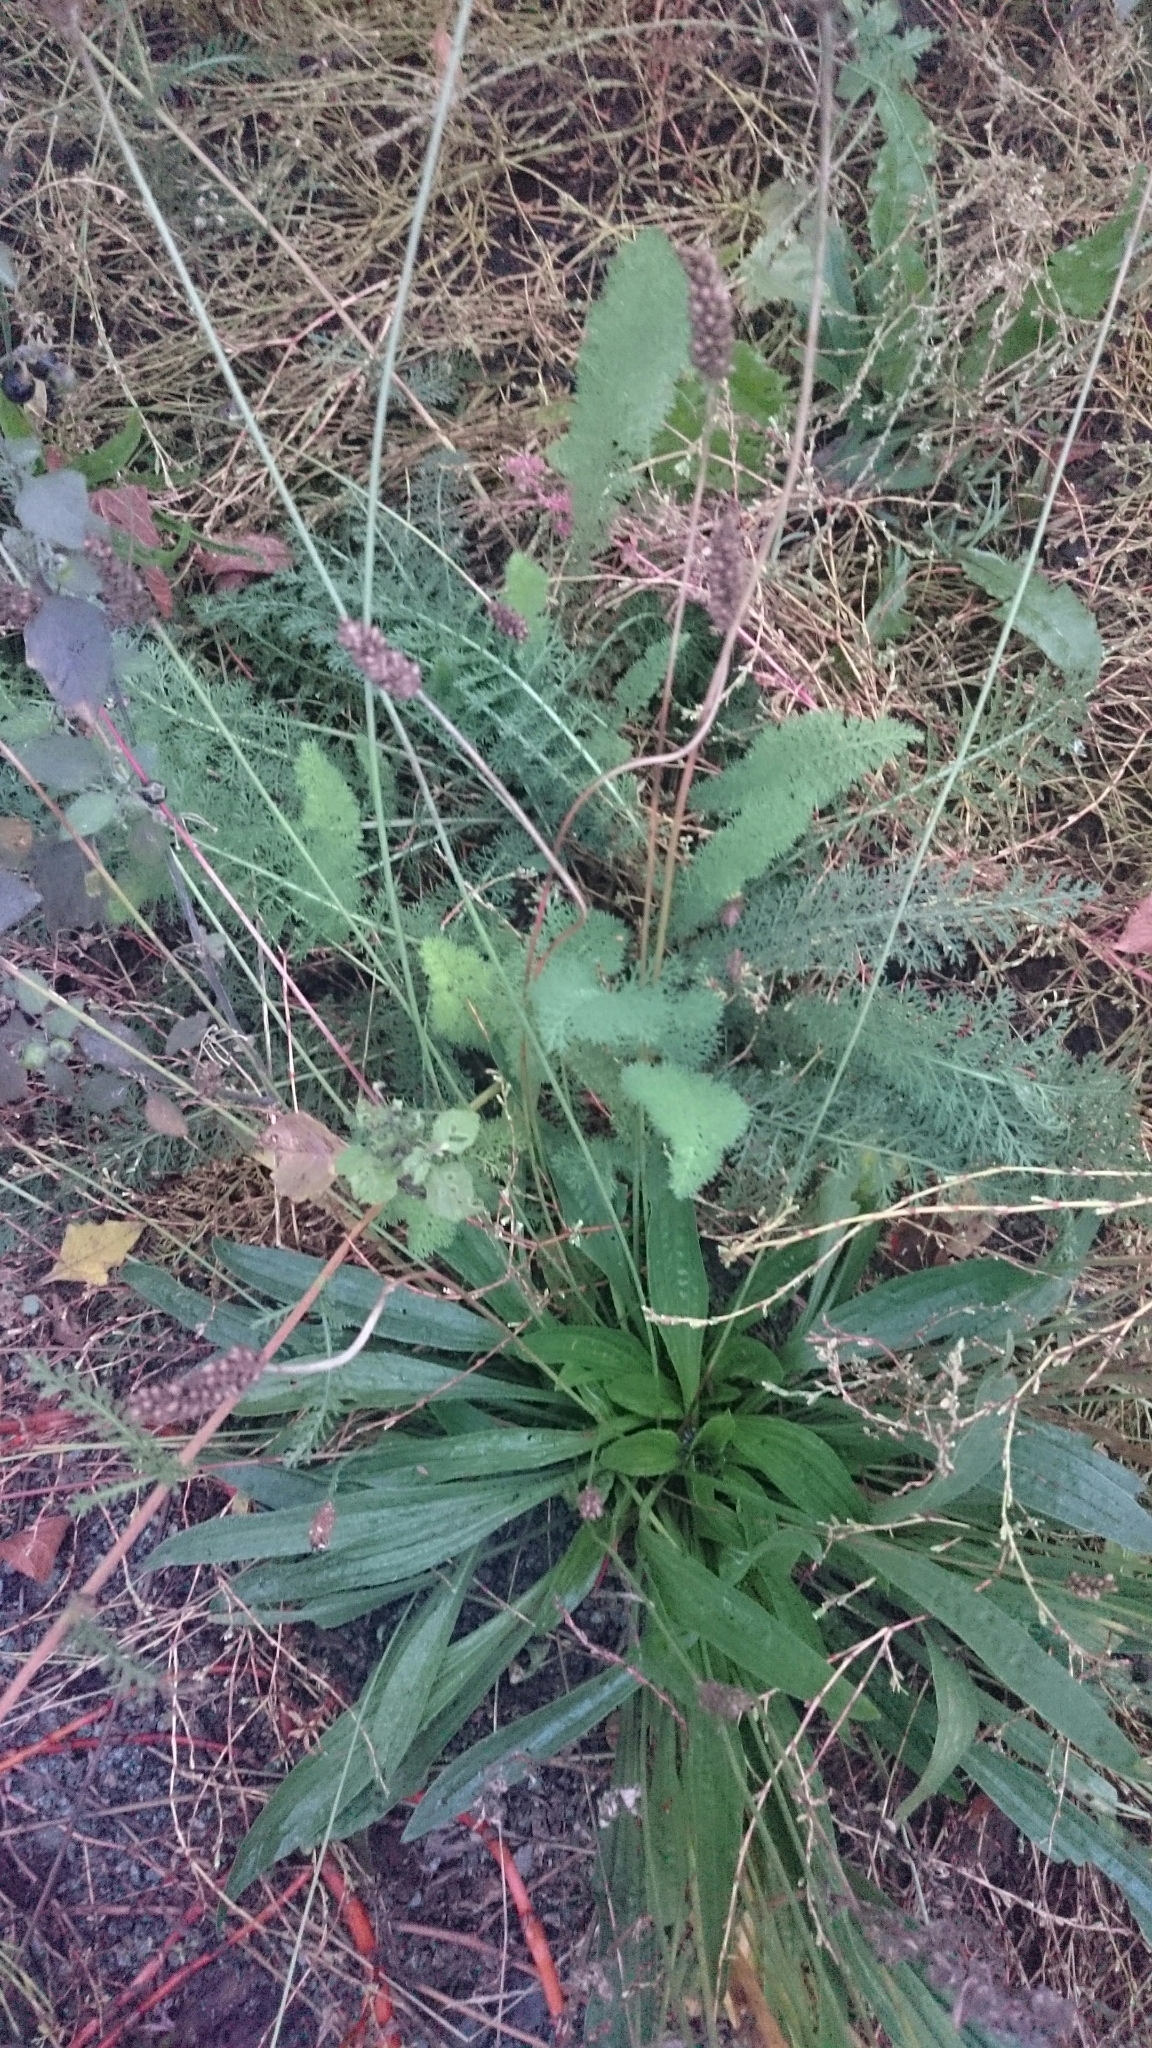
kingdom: Plantae
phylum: Tracheophyta
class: Magnoliopsida
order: Lamiales
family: Plantaginaceae
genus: Plantago
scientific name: Plantago lanceolata
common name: Ribwort plantain
